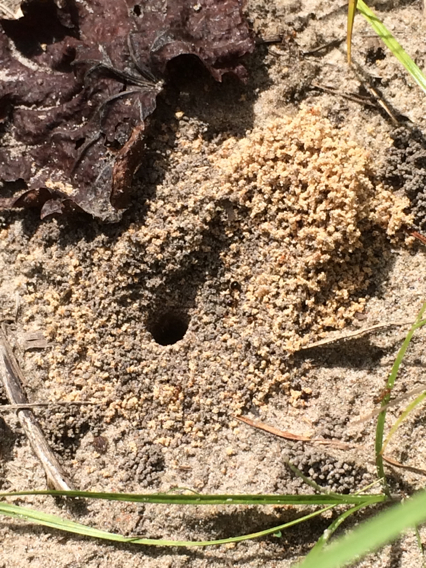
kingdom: Animalia
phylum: Arthropoda
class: Insecta
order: Hymenoptera
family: Formicidae
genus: Dorymyrmex
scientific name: Dorymyrmex flavus
